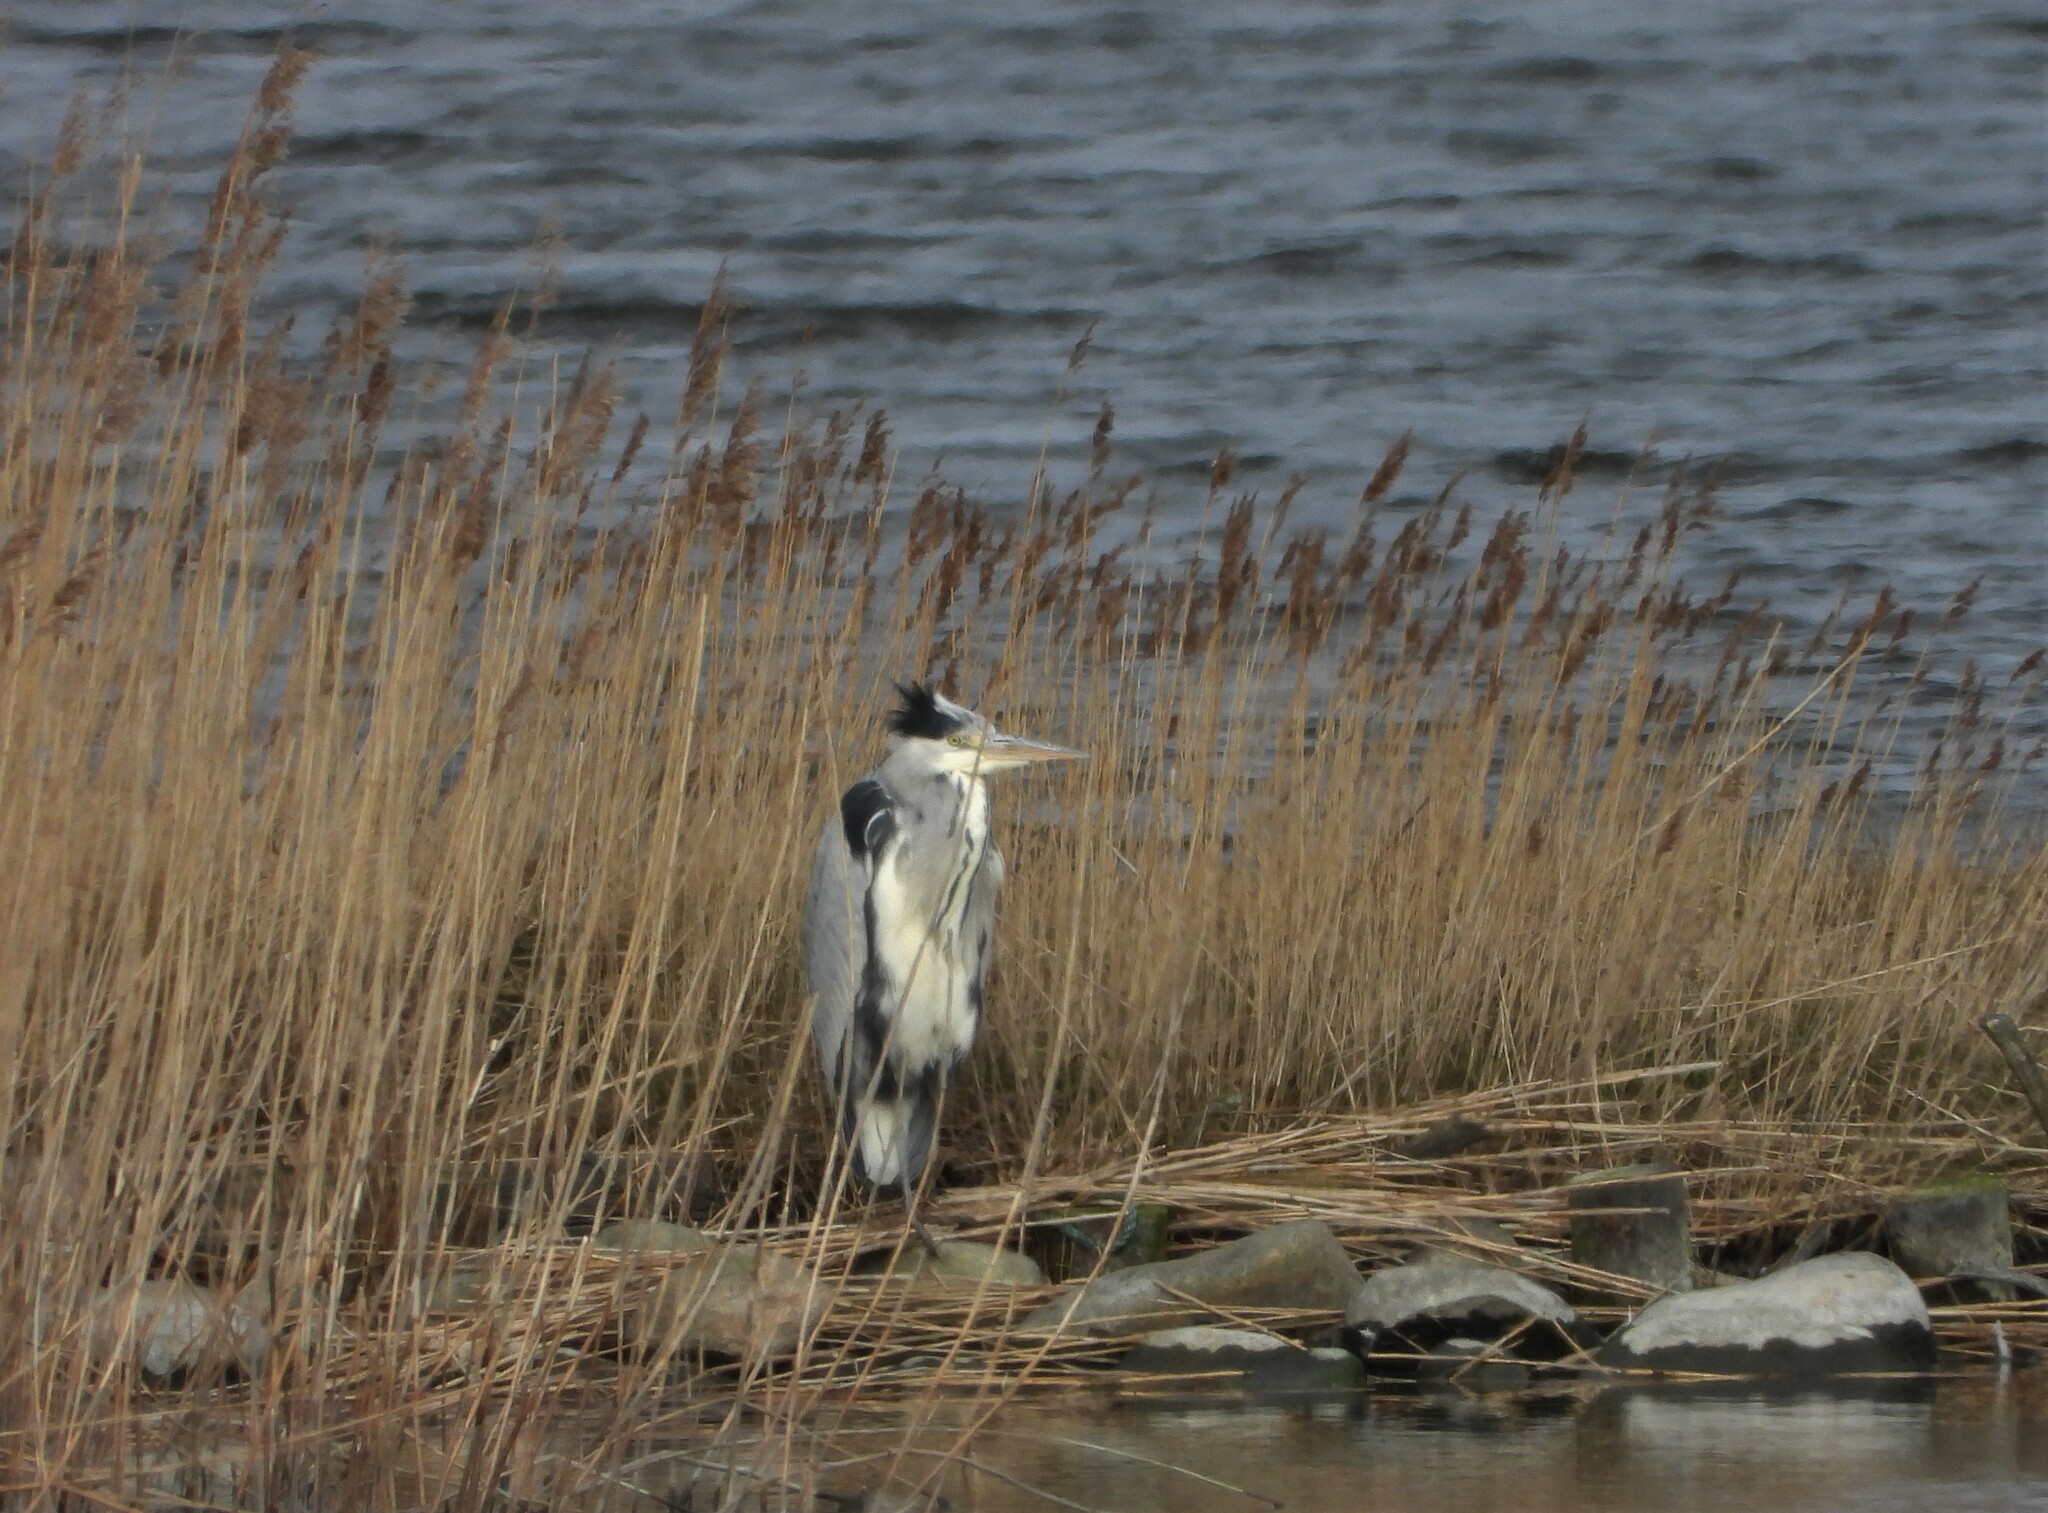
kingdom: Animalia
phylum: Chordata
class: Aves
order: Pelecaniformes
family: Ardeidae
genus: Ardea
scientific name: Ardea cinerea
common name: Grey heron
